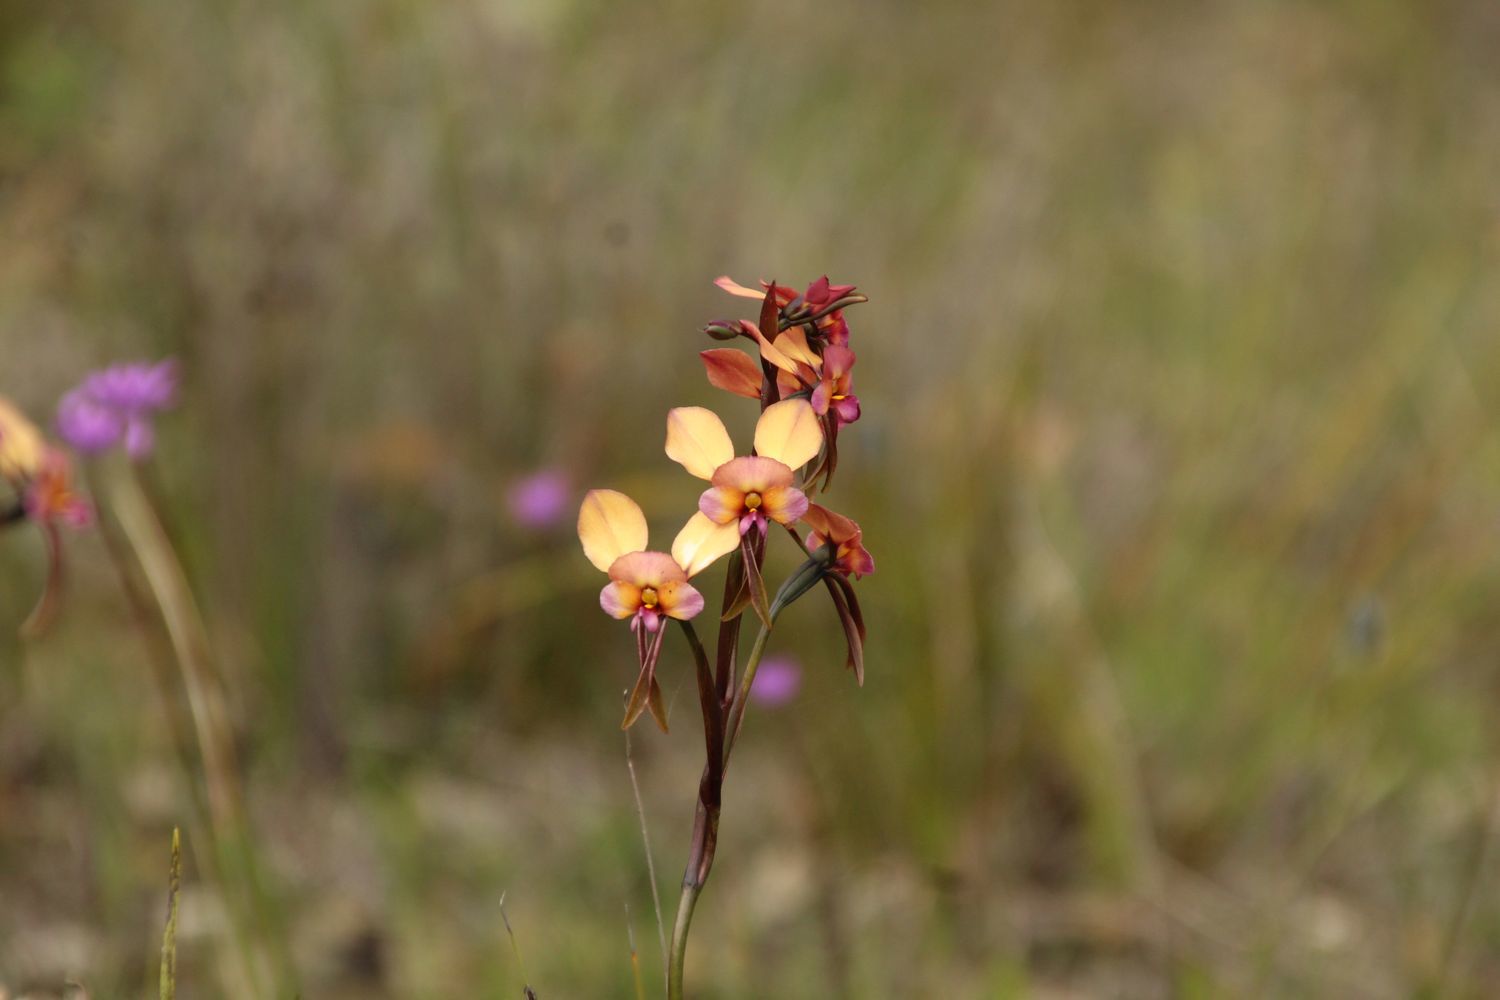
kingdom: Plantae
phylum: Tracheophyta
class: Liliopsida
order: Asparagales
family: Orchidaceae
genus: Diuris
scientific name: Diuris longifolia
